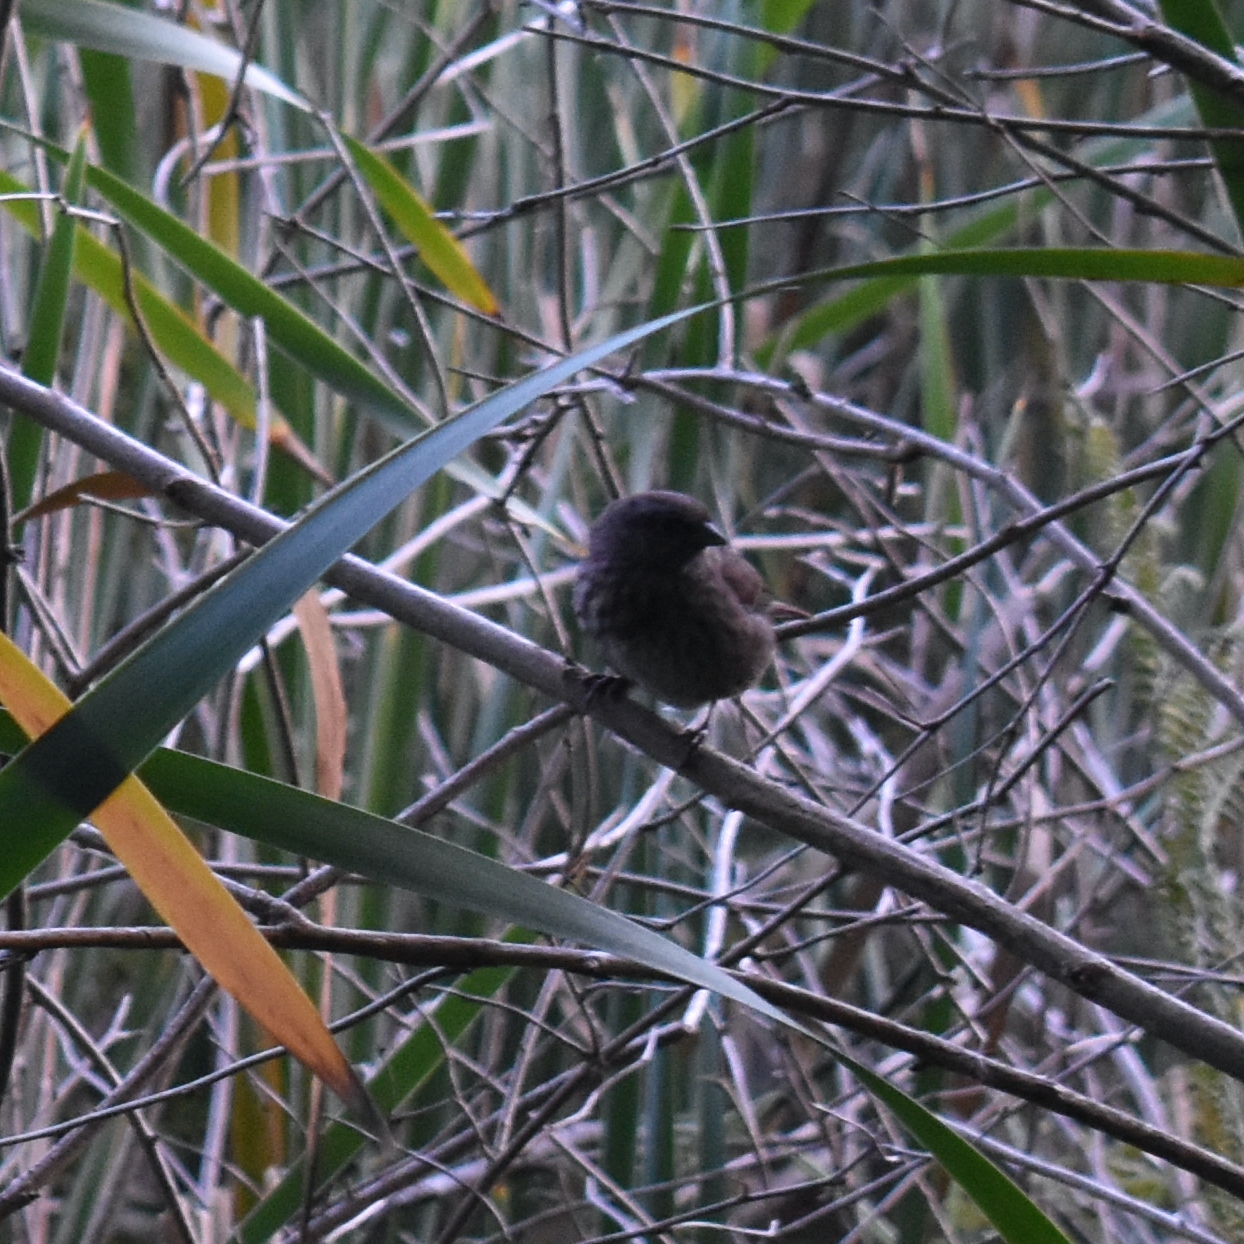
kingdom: Animalia
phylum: Chordata
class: Aves
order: Passeriformes
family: Passerellidae
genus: Melospiza
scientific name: Melospiza melodia
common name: Song sparrow
